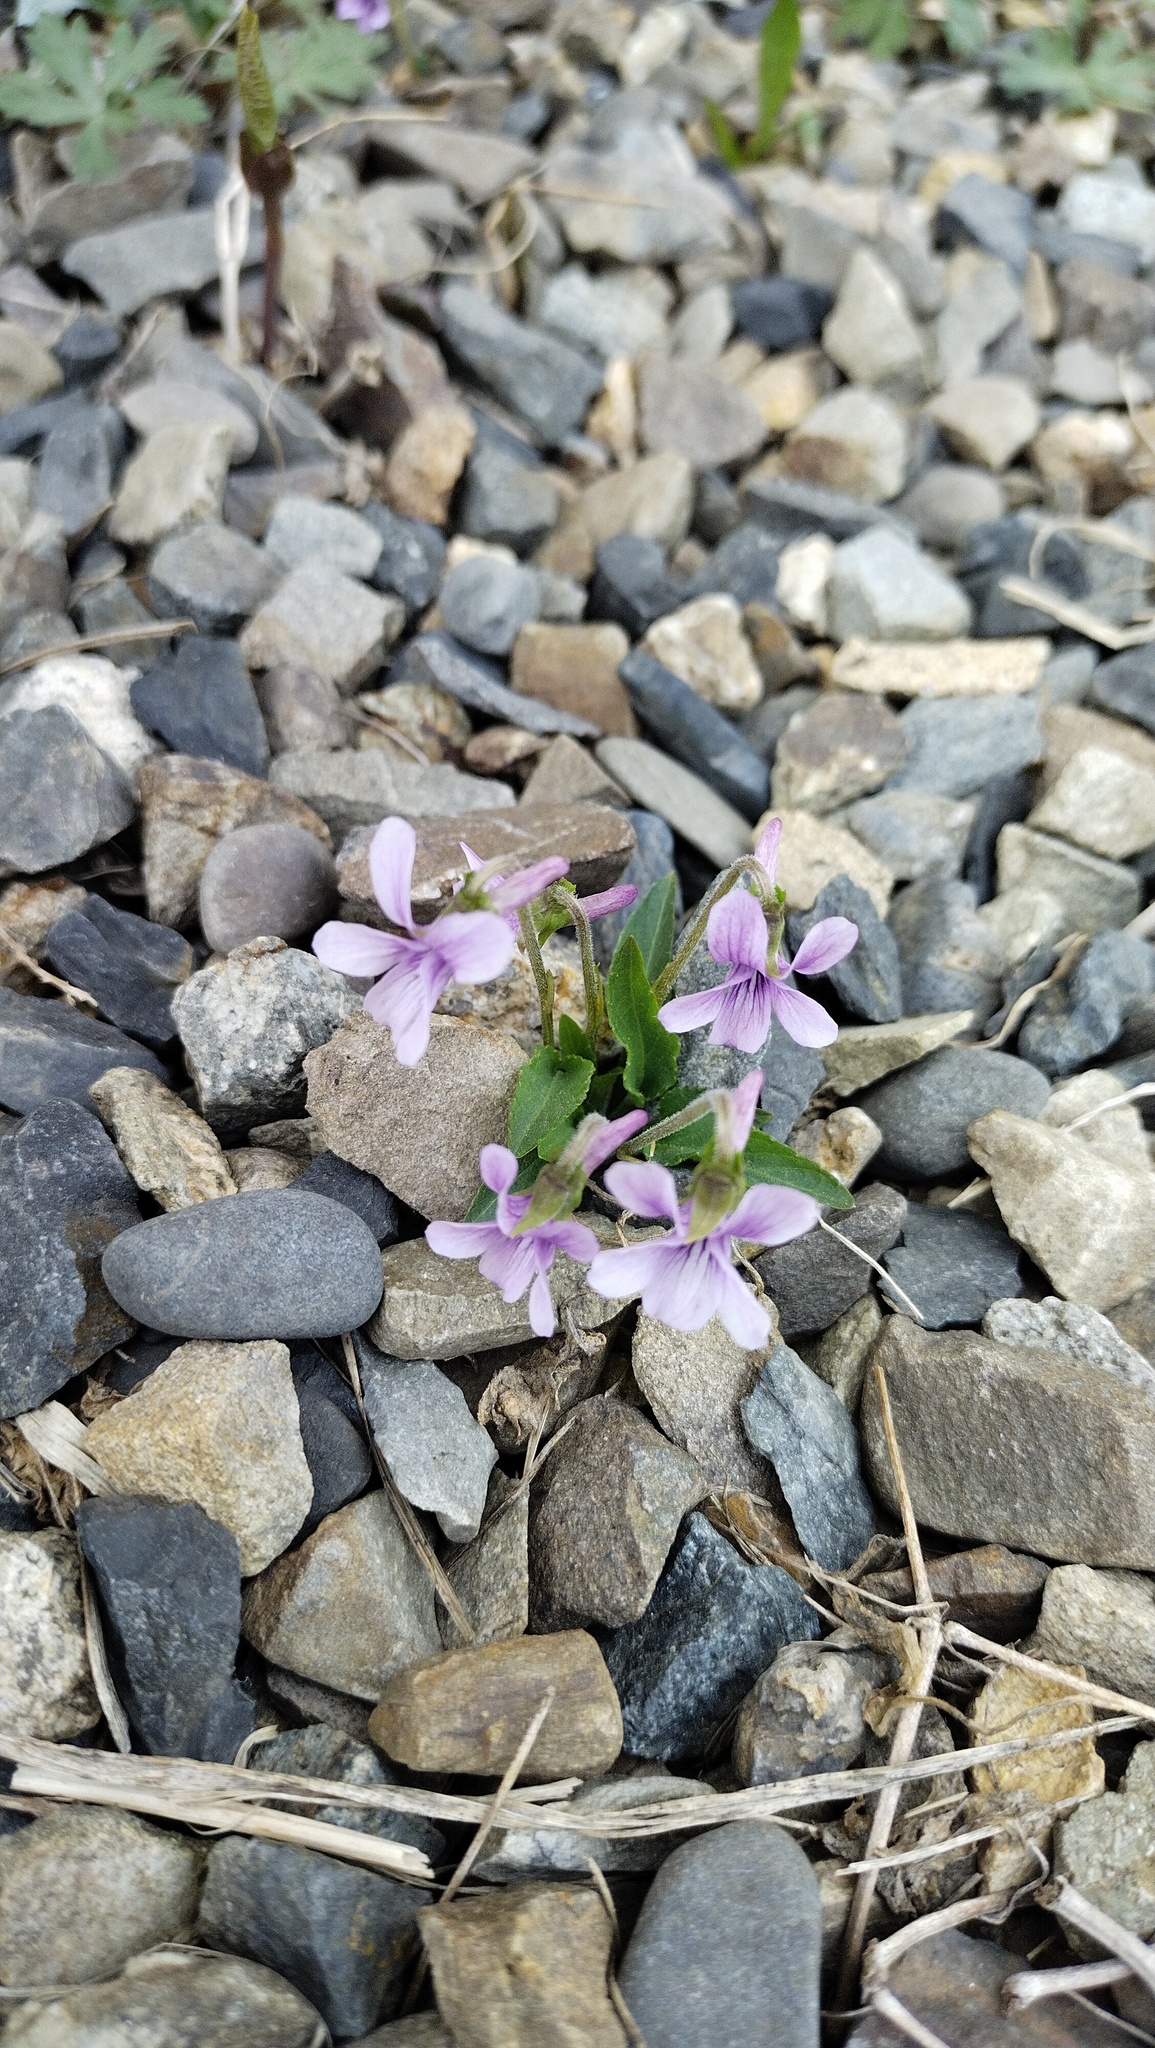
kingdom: Plantae
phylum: Tracheophyta
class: Magnoliopsida
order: Malpighiales
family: Violaceae
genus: Viola
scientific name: Viola prionantha
